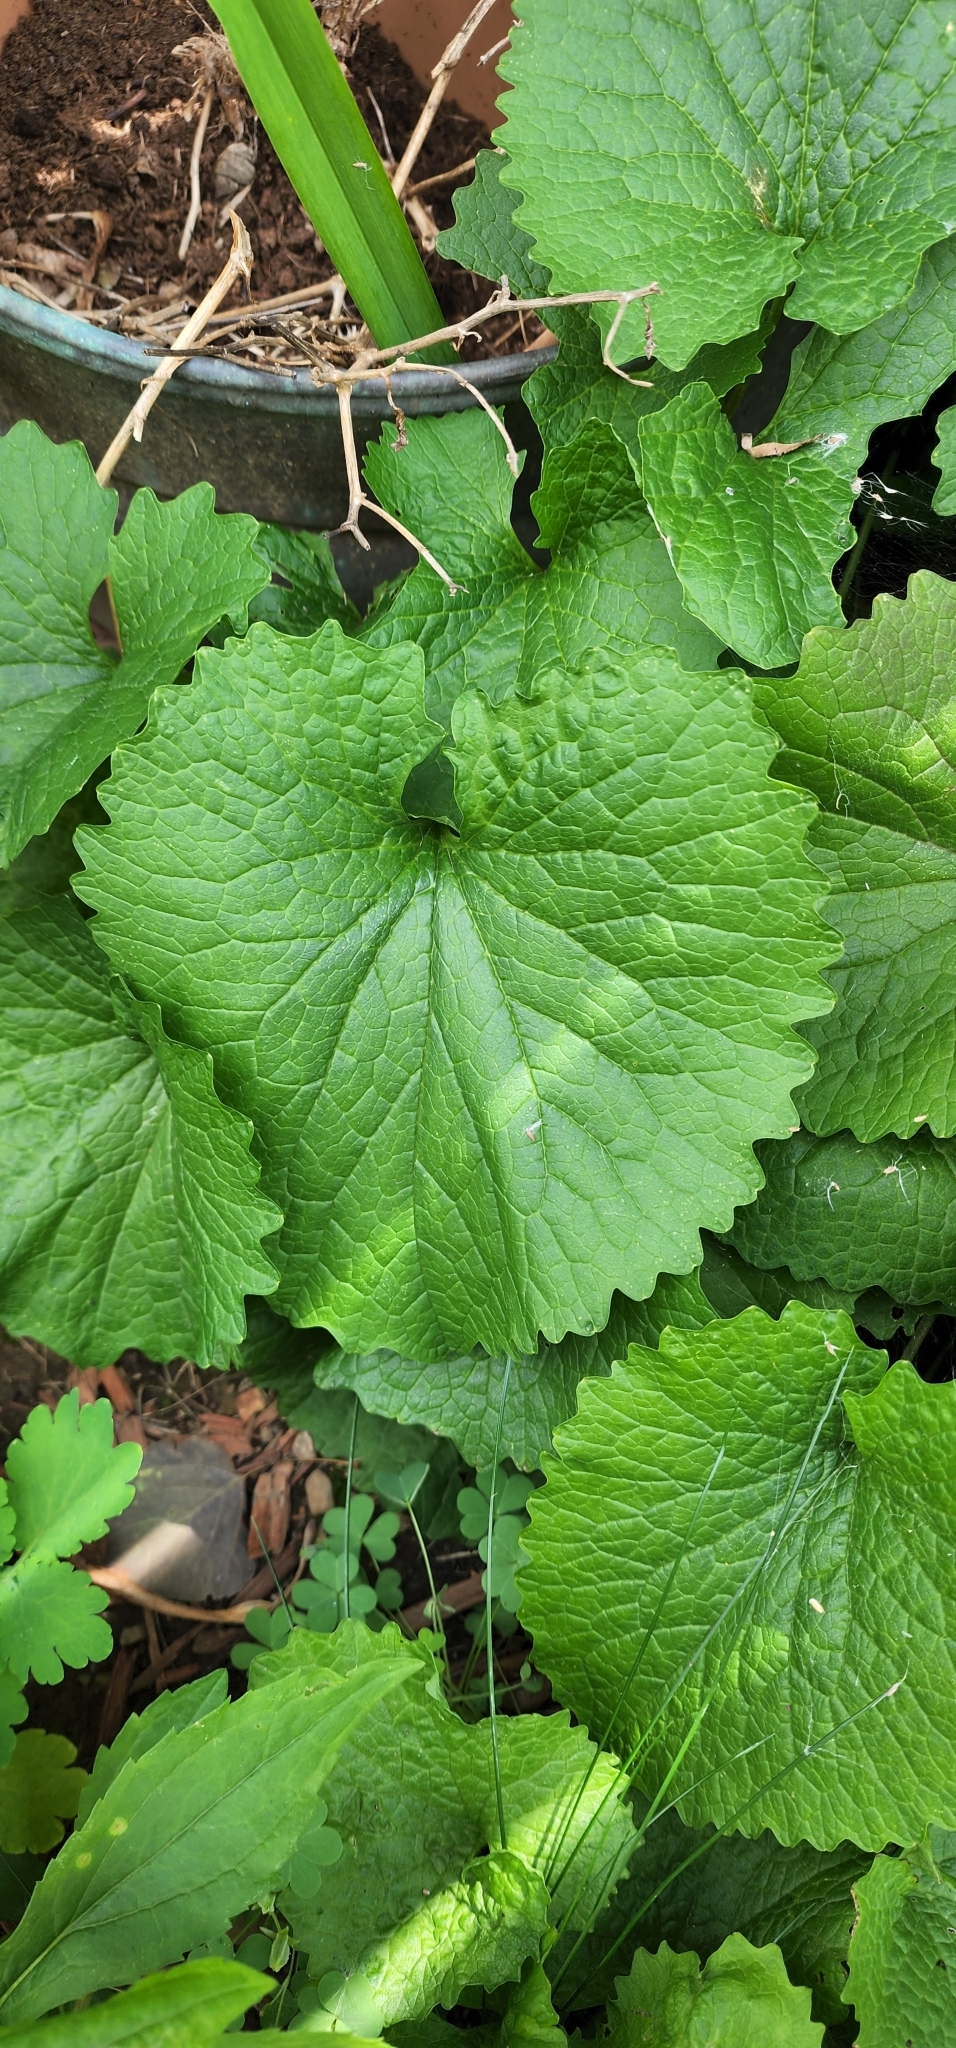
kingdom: Plantae
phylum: Tracheophyta
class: Magnoliopsida
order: Brassicales
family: Brassicaceae
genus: Alliaria
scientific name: Alliaria petiolata
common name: Garlic mustard
